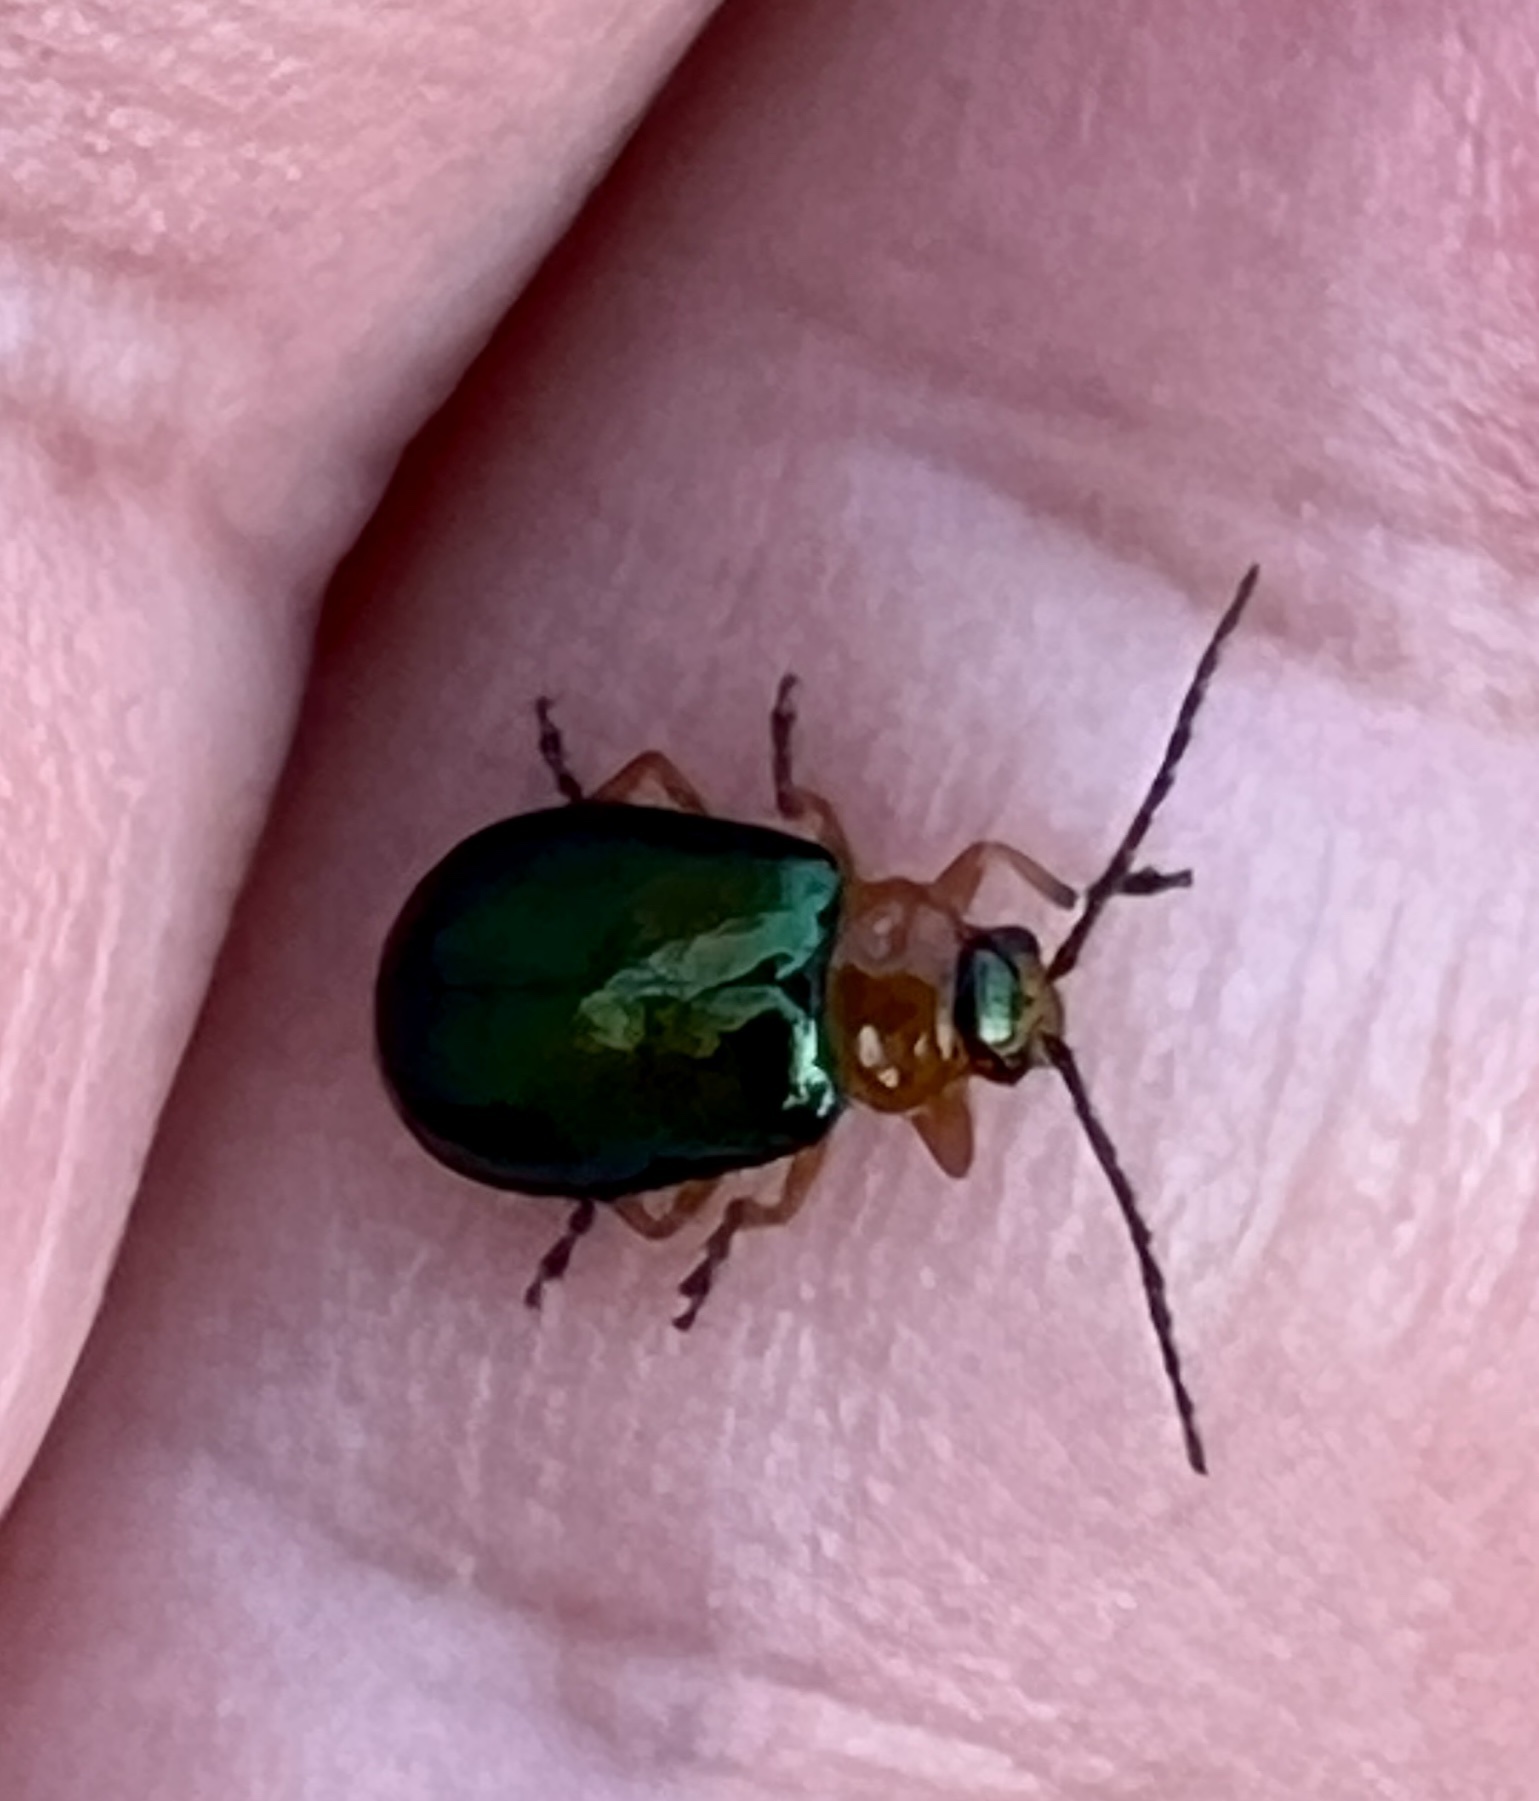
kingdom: Animalia
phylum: Arthropoda
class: Insecta
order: Coleoptera
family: Chrysomelidae
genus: Sermylassa
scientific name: Sermylassa halensis
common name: Leaf beetle
